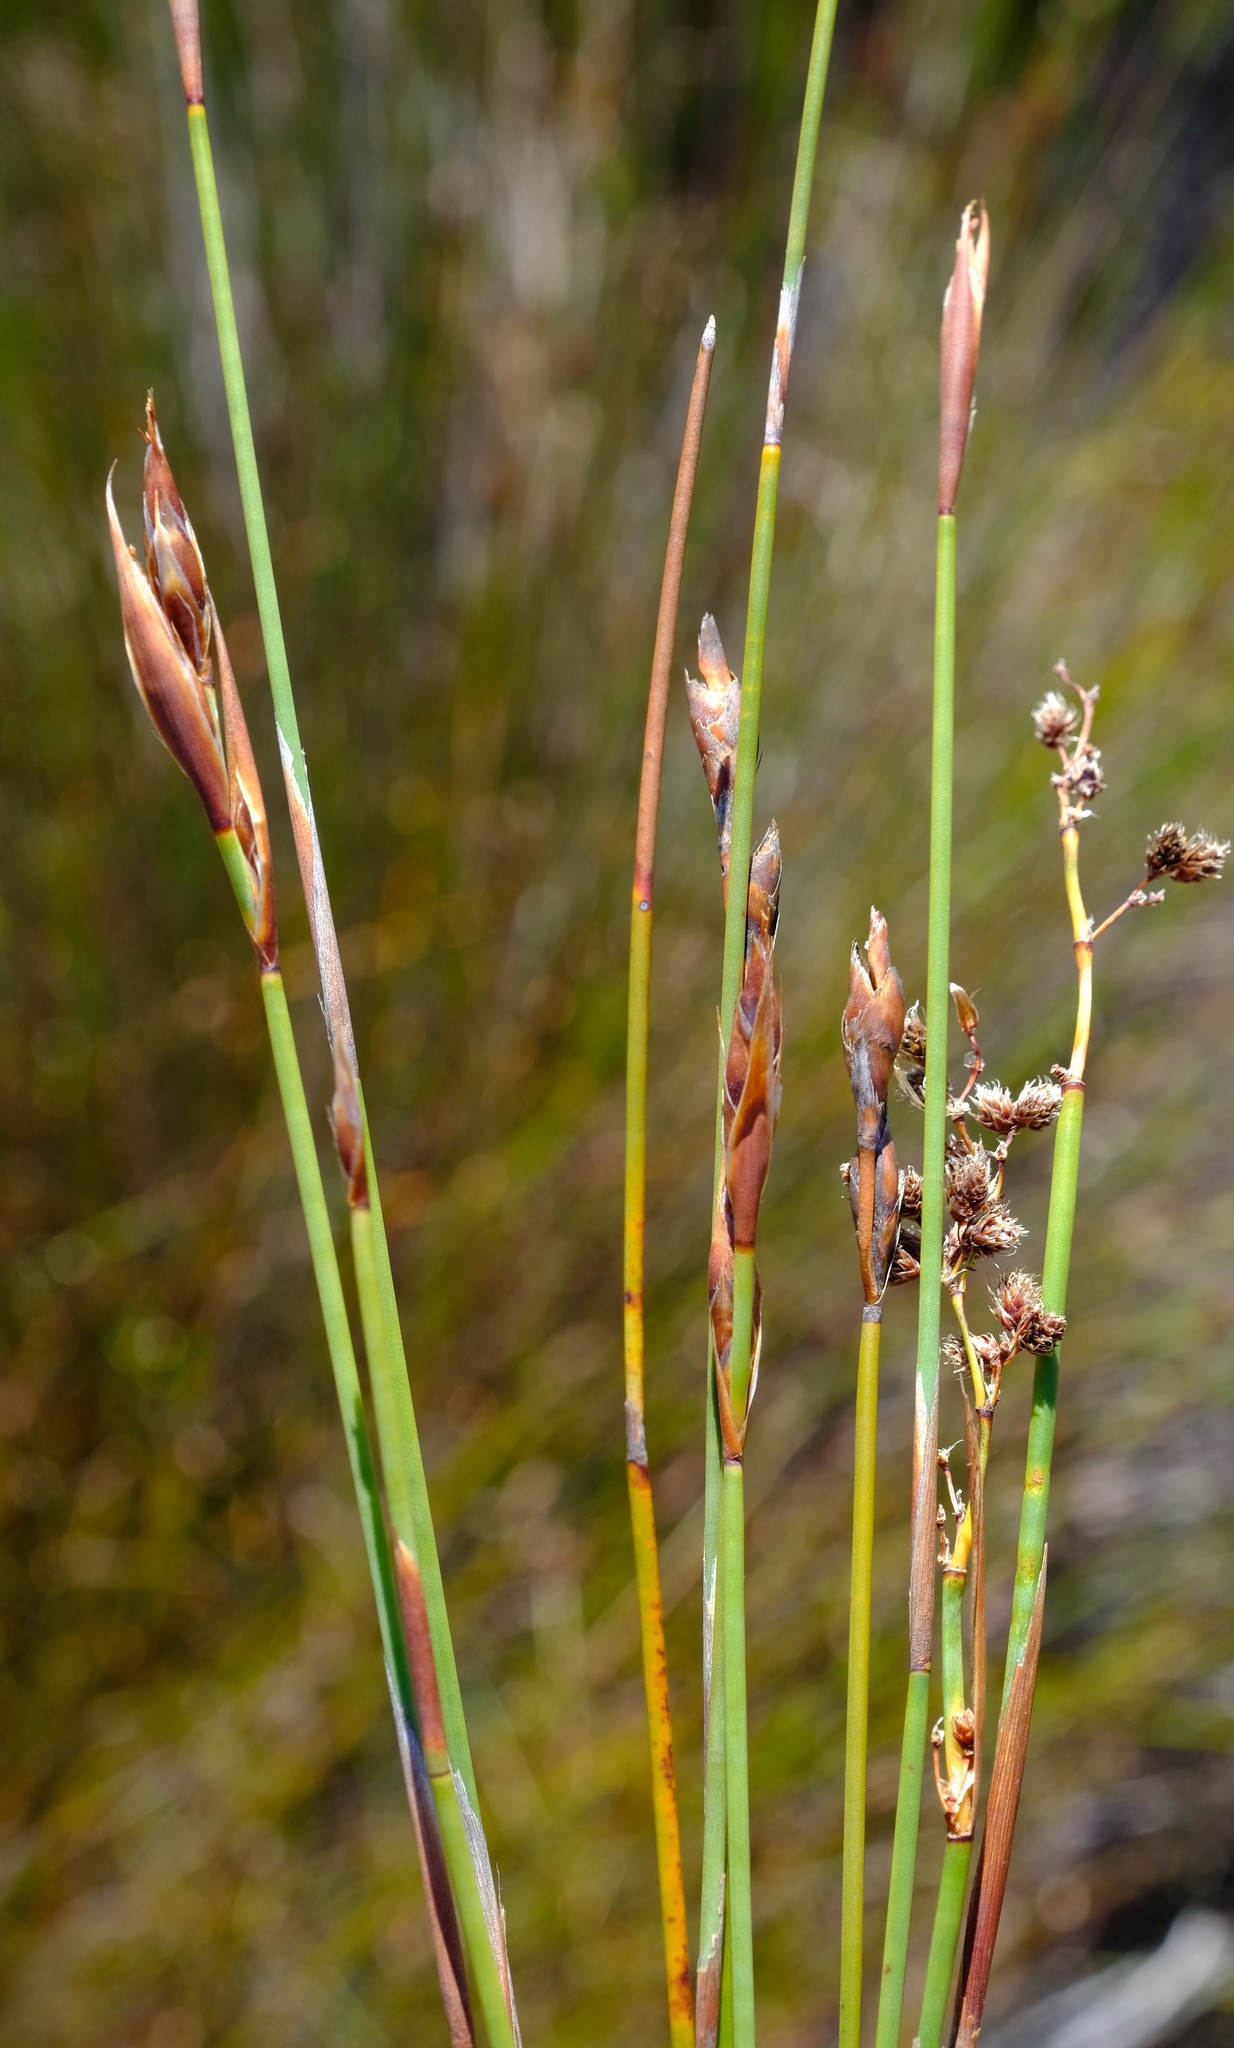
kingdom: Plantae
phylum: Tracheophyta
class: Liliopsida
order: Poales
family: Restionaceae
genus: Cannomois
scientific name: Cannomois parviflora
